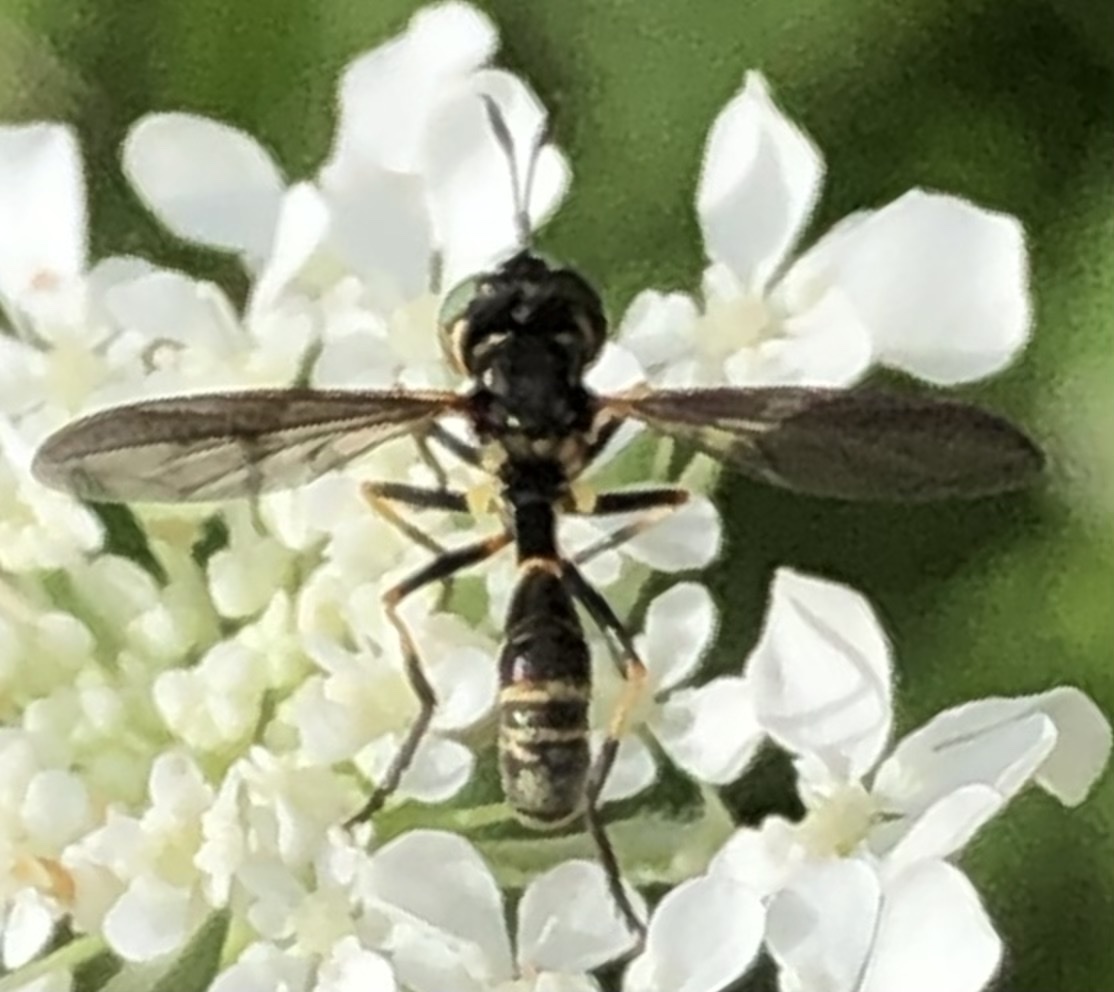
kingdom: Animalia
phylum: Arthropoda
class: Insecta
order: Diptera
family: Conopidae
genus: Physoconops
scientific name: Physoconops obscuripennis
